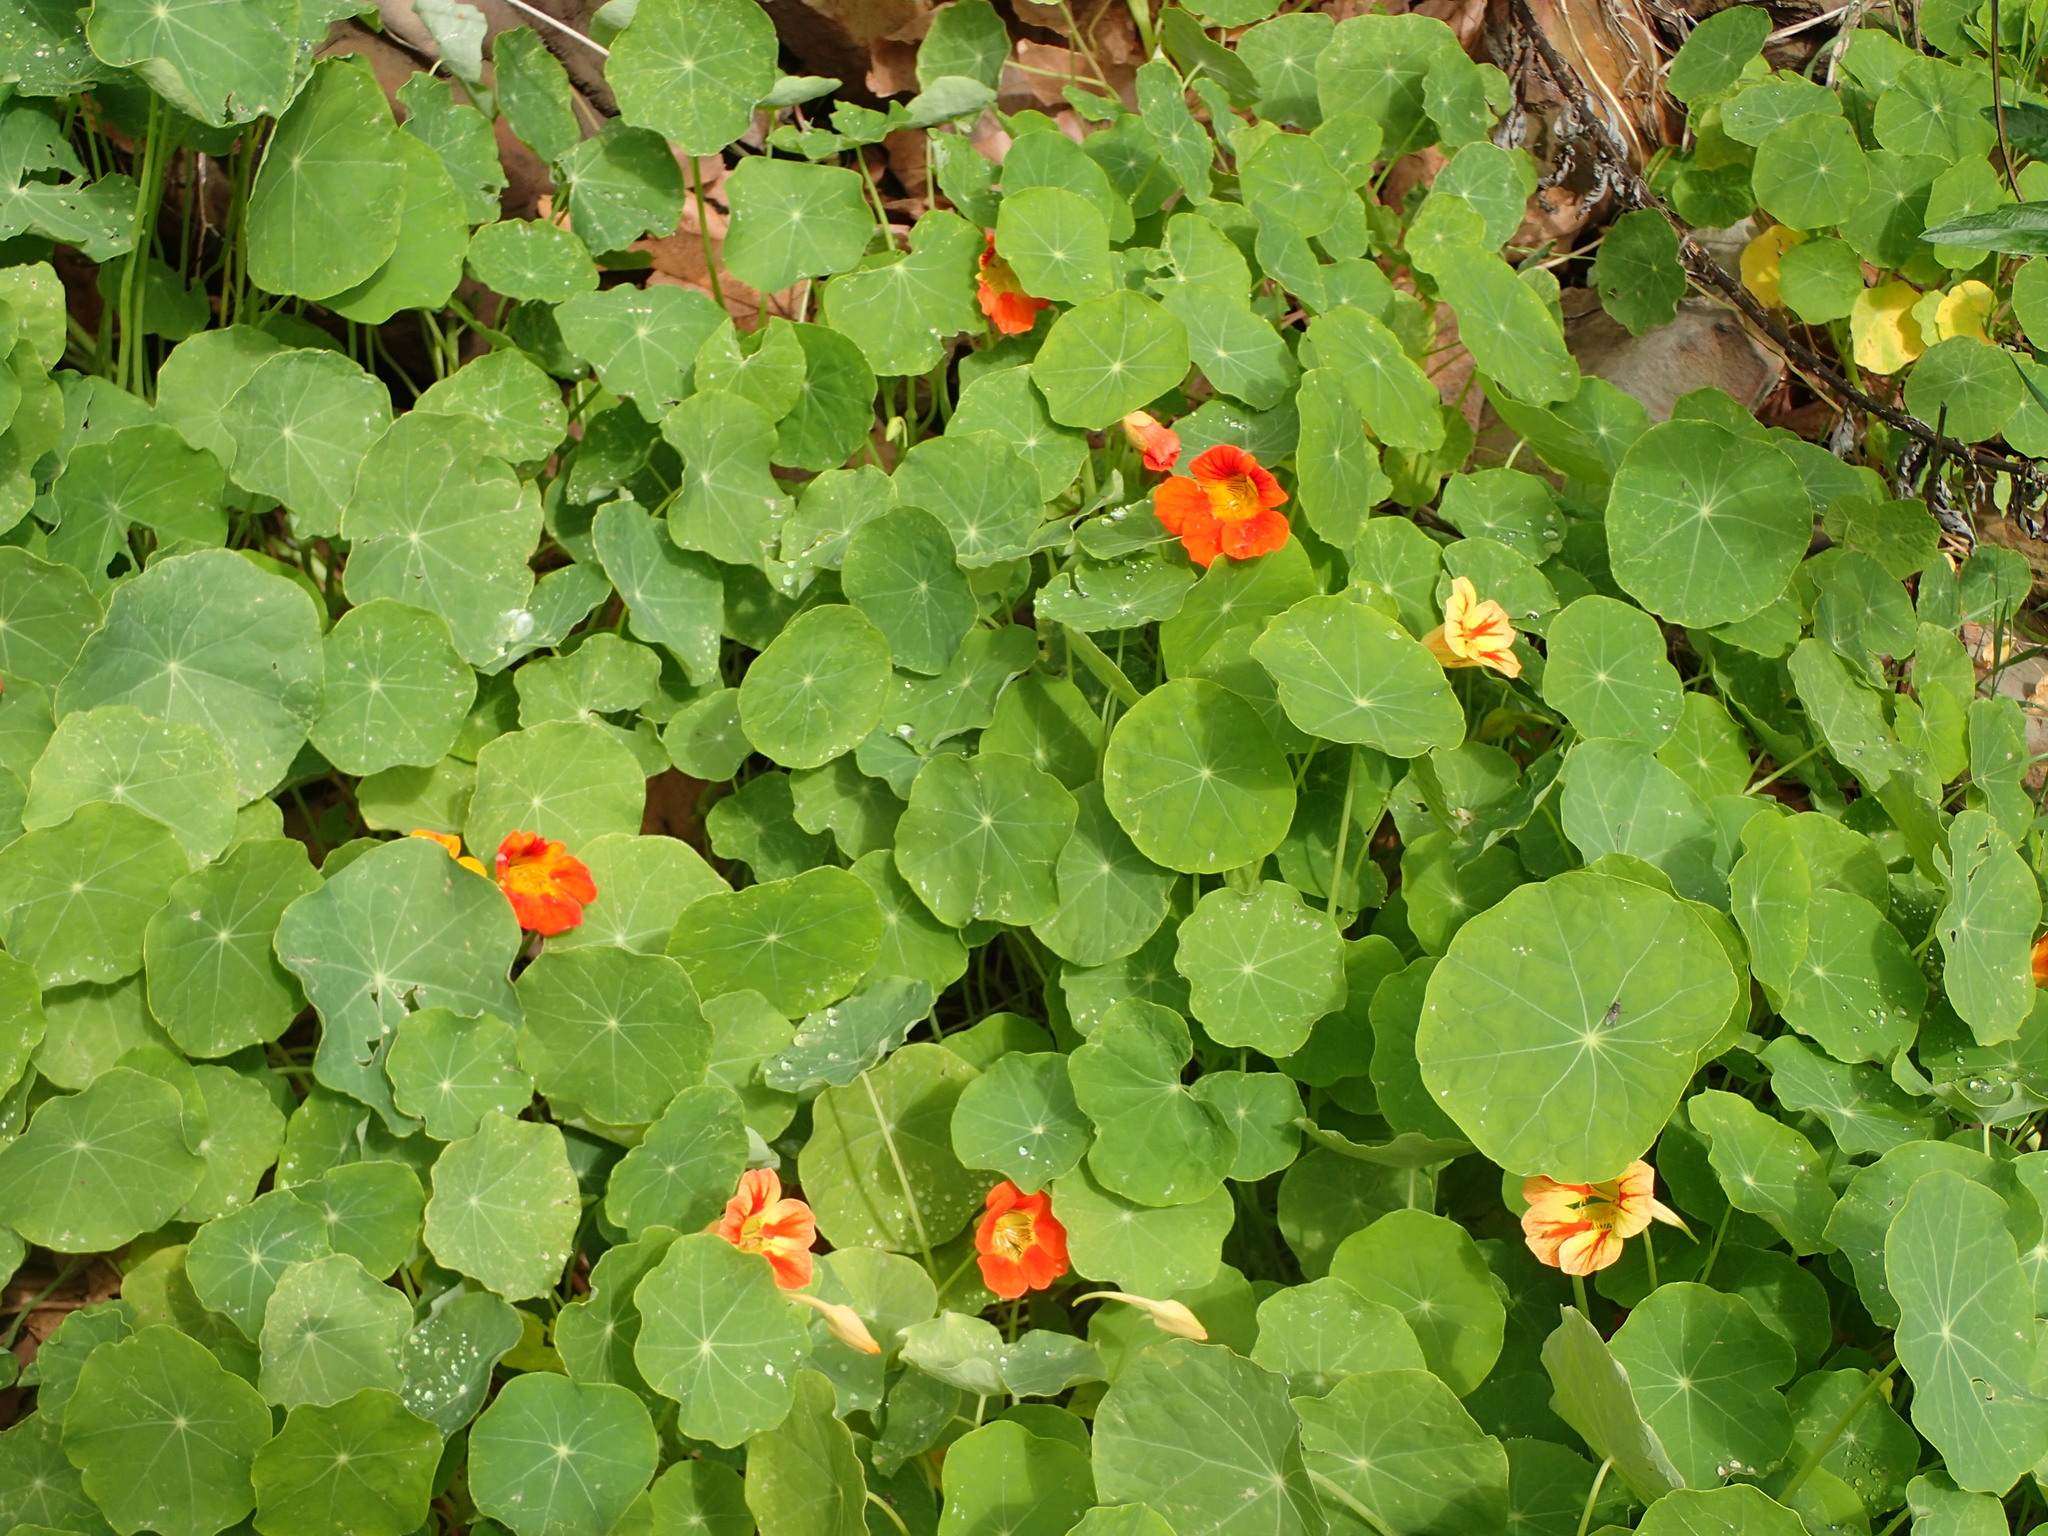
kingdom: Plantae
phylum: Tracheophyta
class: Magnoliopsida
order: Brassicales
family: Tropaeolaceae
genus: Tropaeolum
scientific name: Tropaeolum majus
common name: Nasturtium
